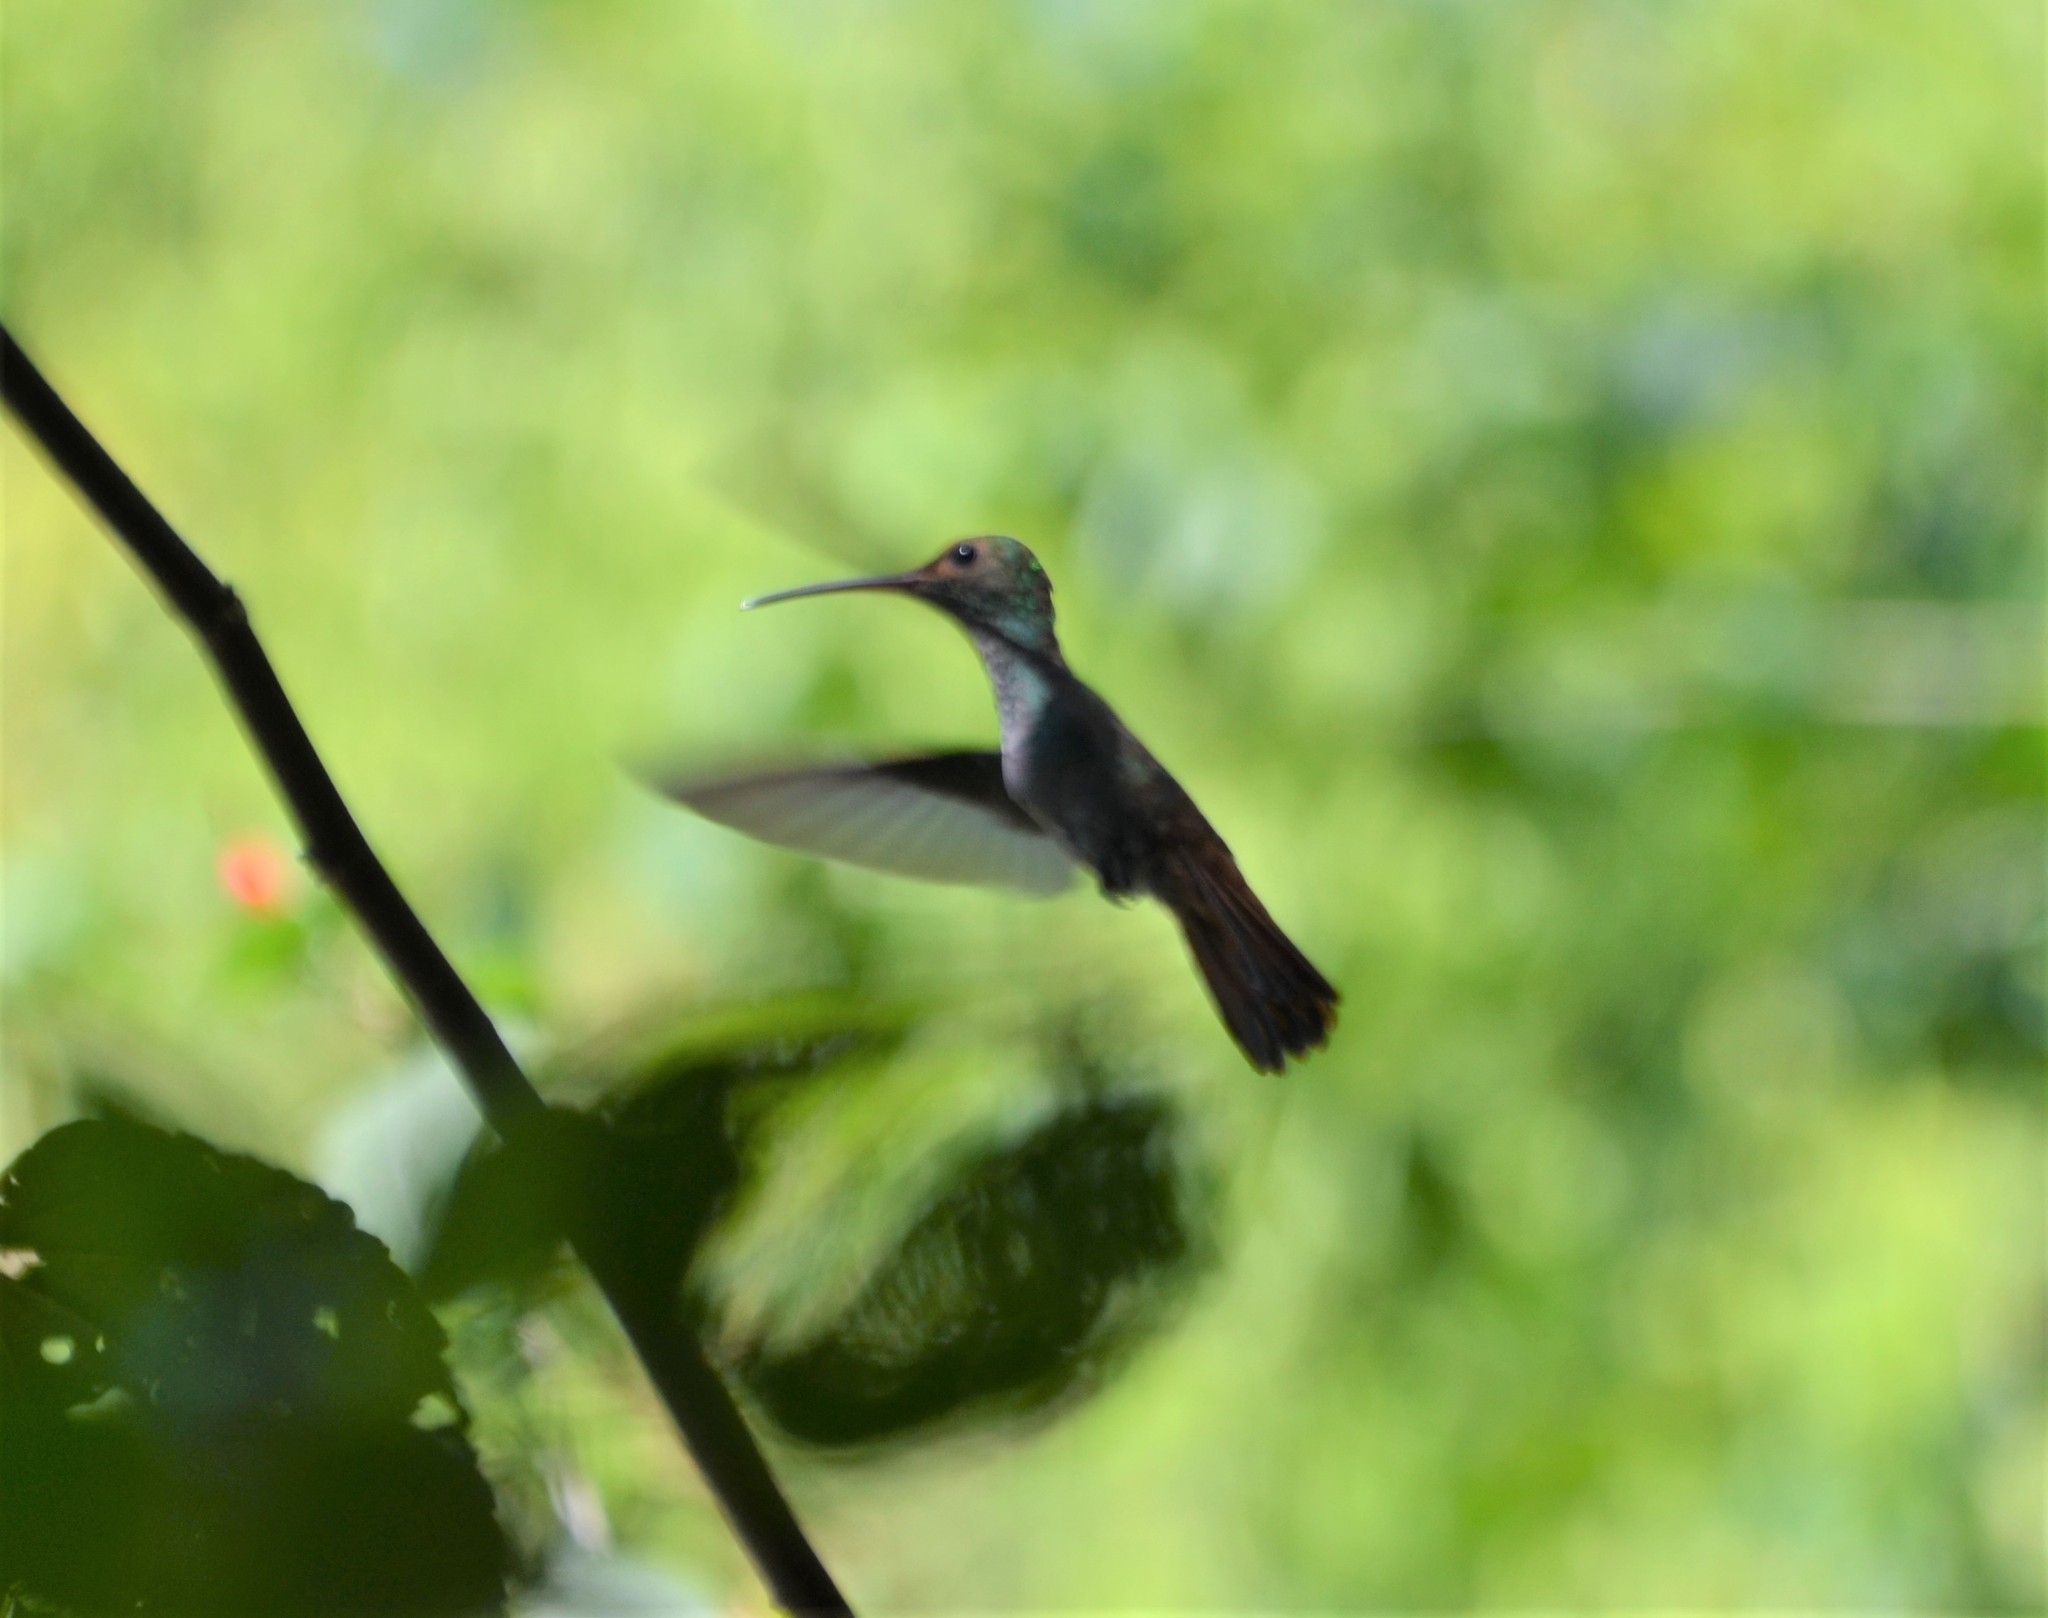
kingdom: Animalia
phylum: Chordata
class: Aves
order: Apodiformes
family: Trochilidae
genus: Amazilia
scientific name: Amazilia boucardi
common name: Mangrove hummingbird
